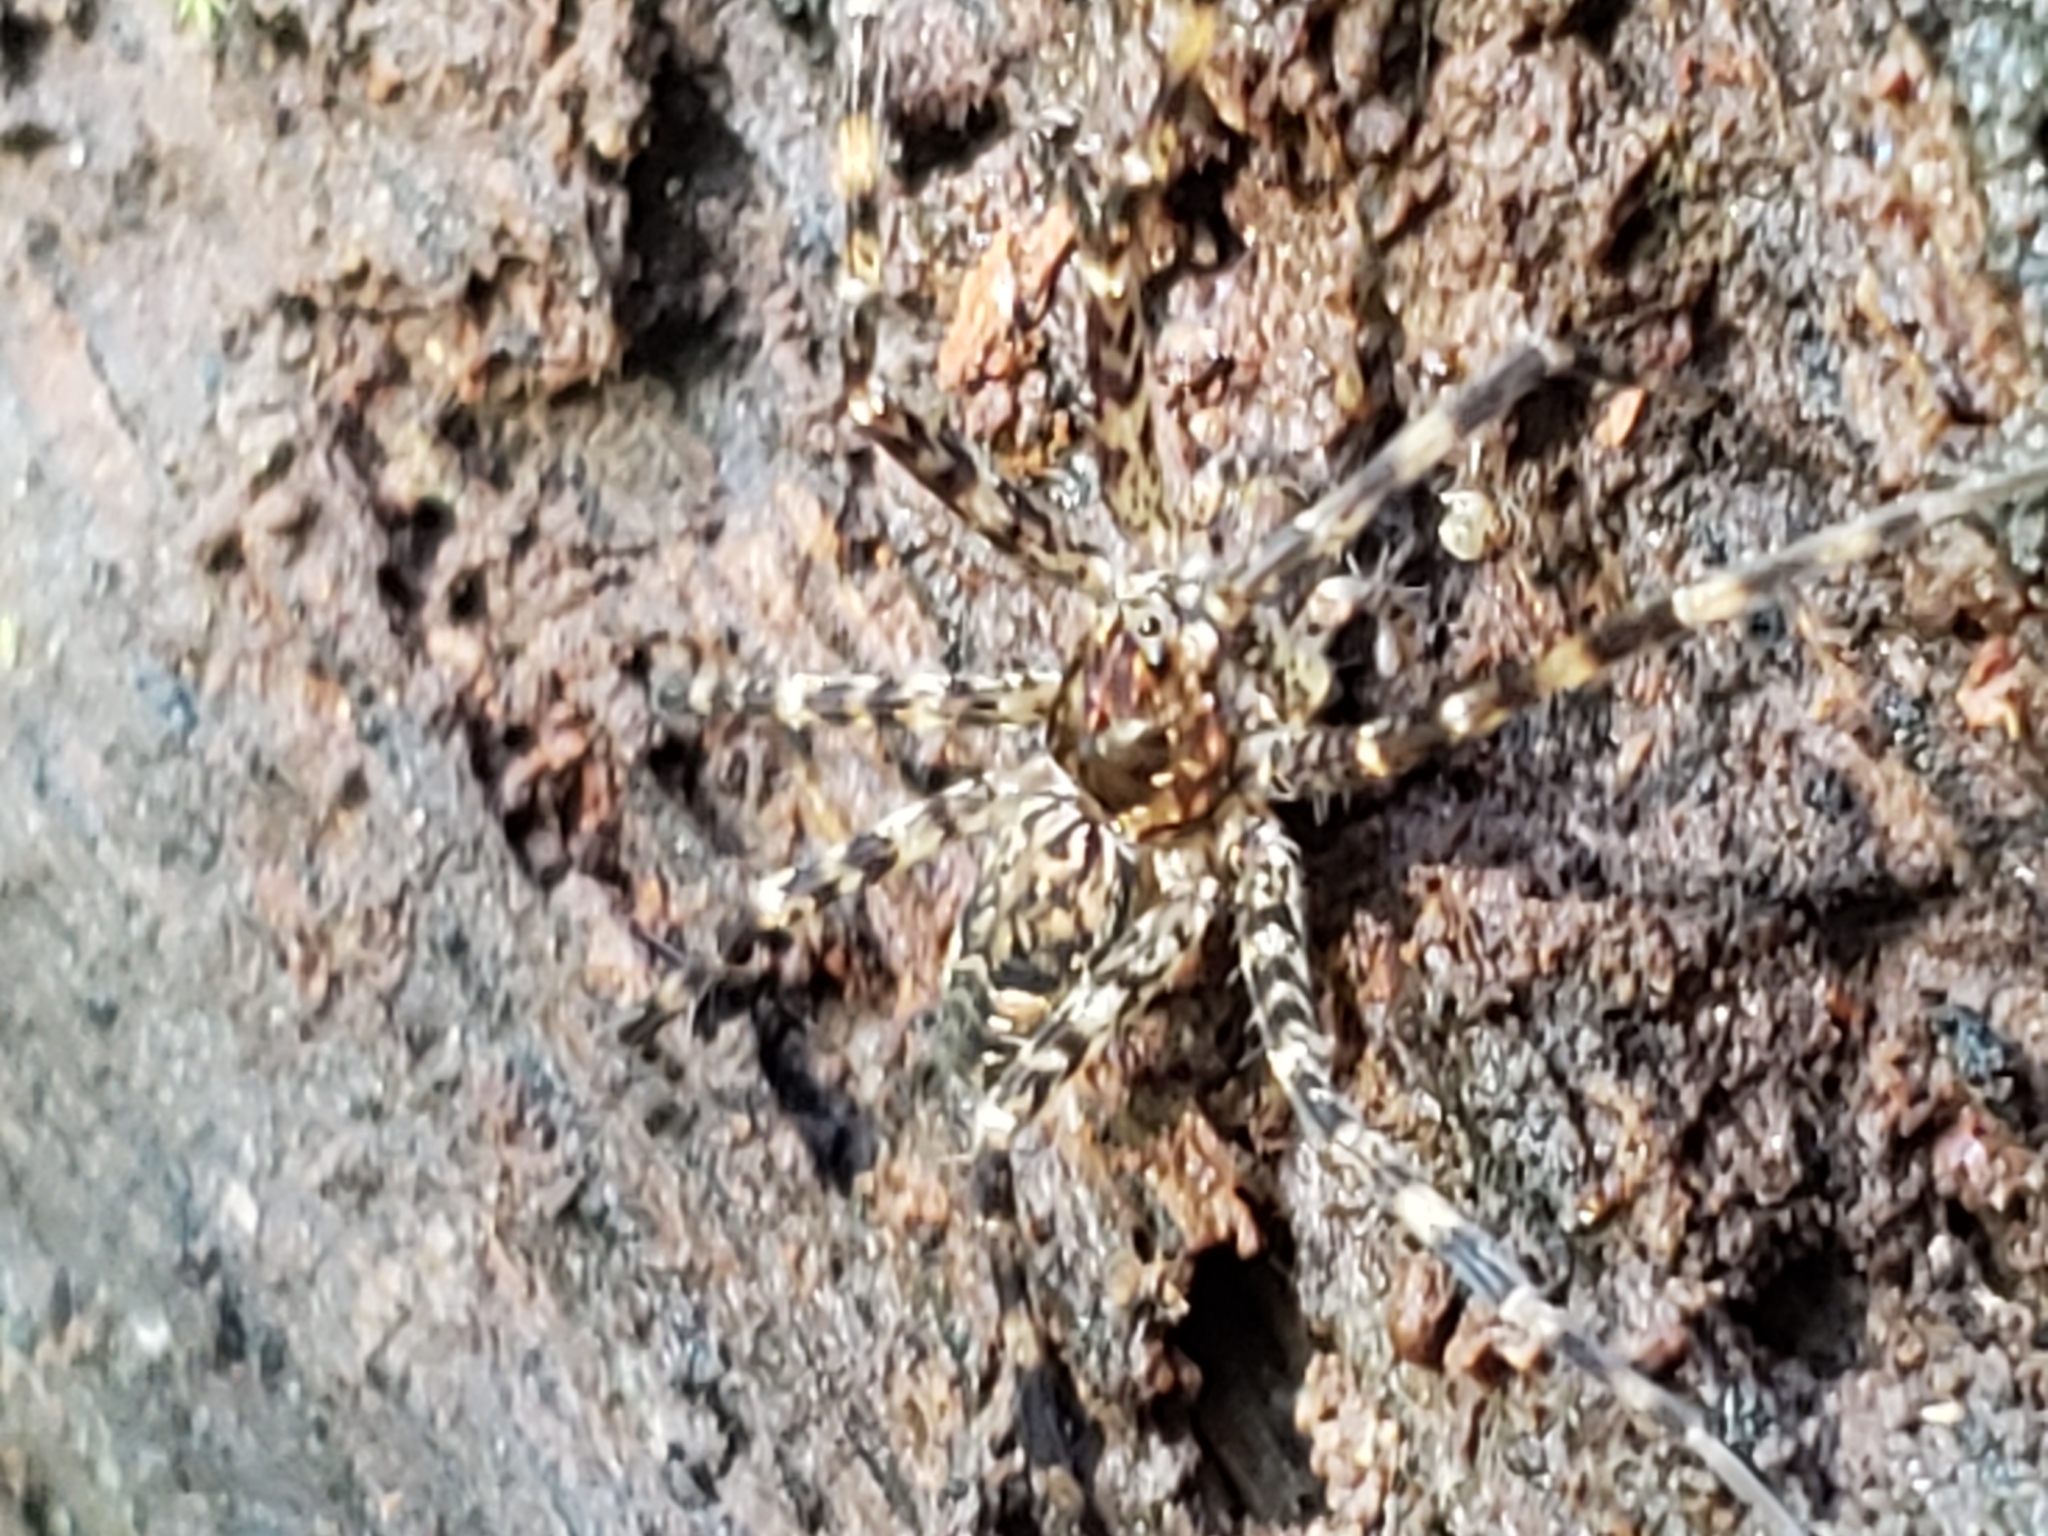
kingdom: Animalia
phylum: Arthropoda
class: Arachnida
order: Araneae
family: Pisauridae
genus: Dolomedes
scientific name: Dolomedes tenebrosus
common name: Dark fishing spider
